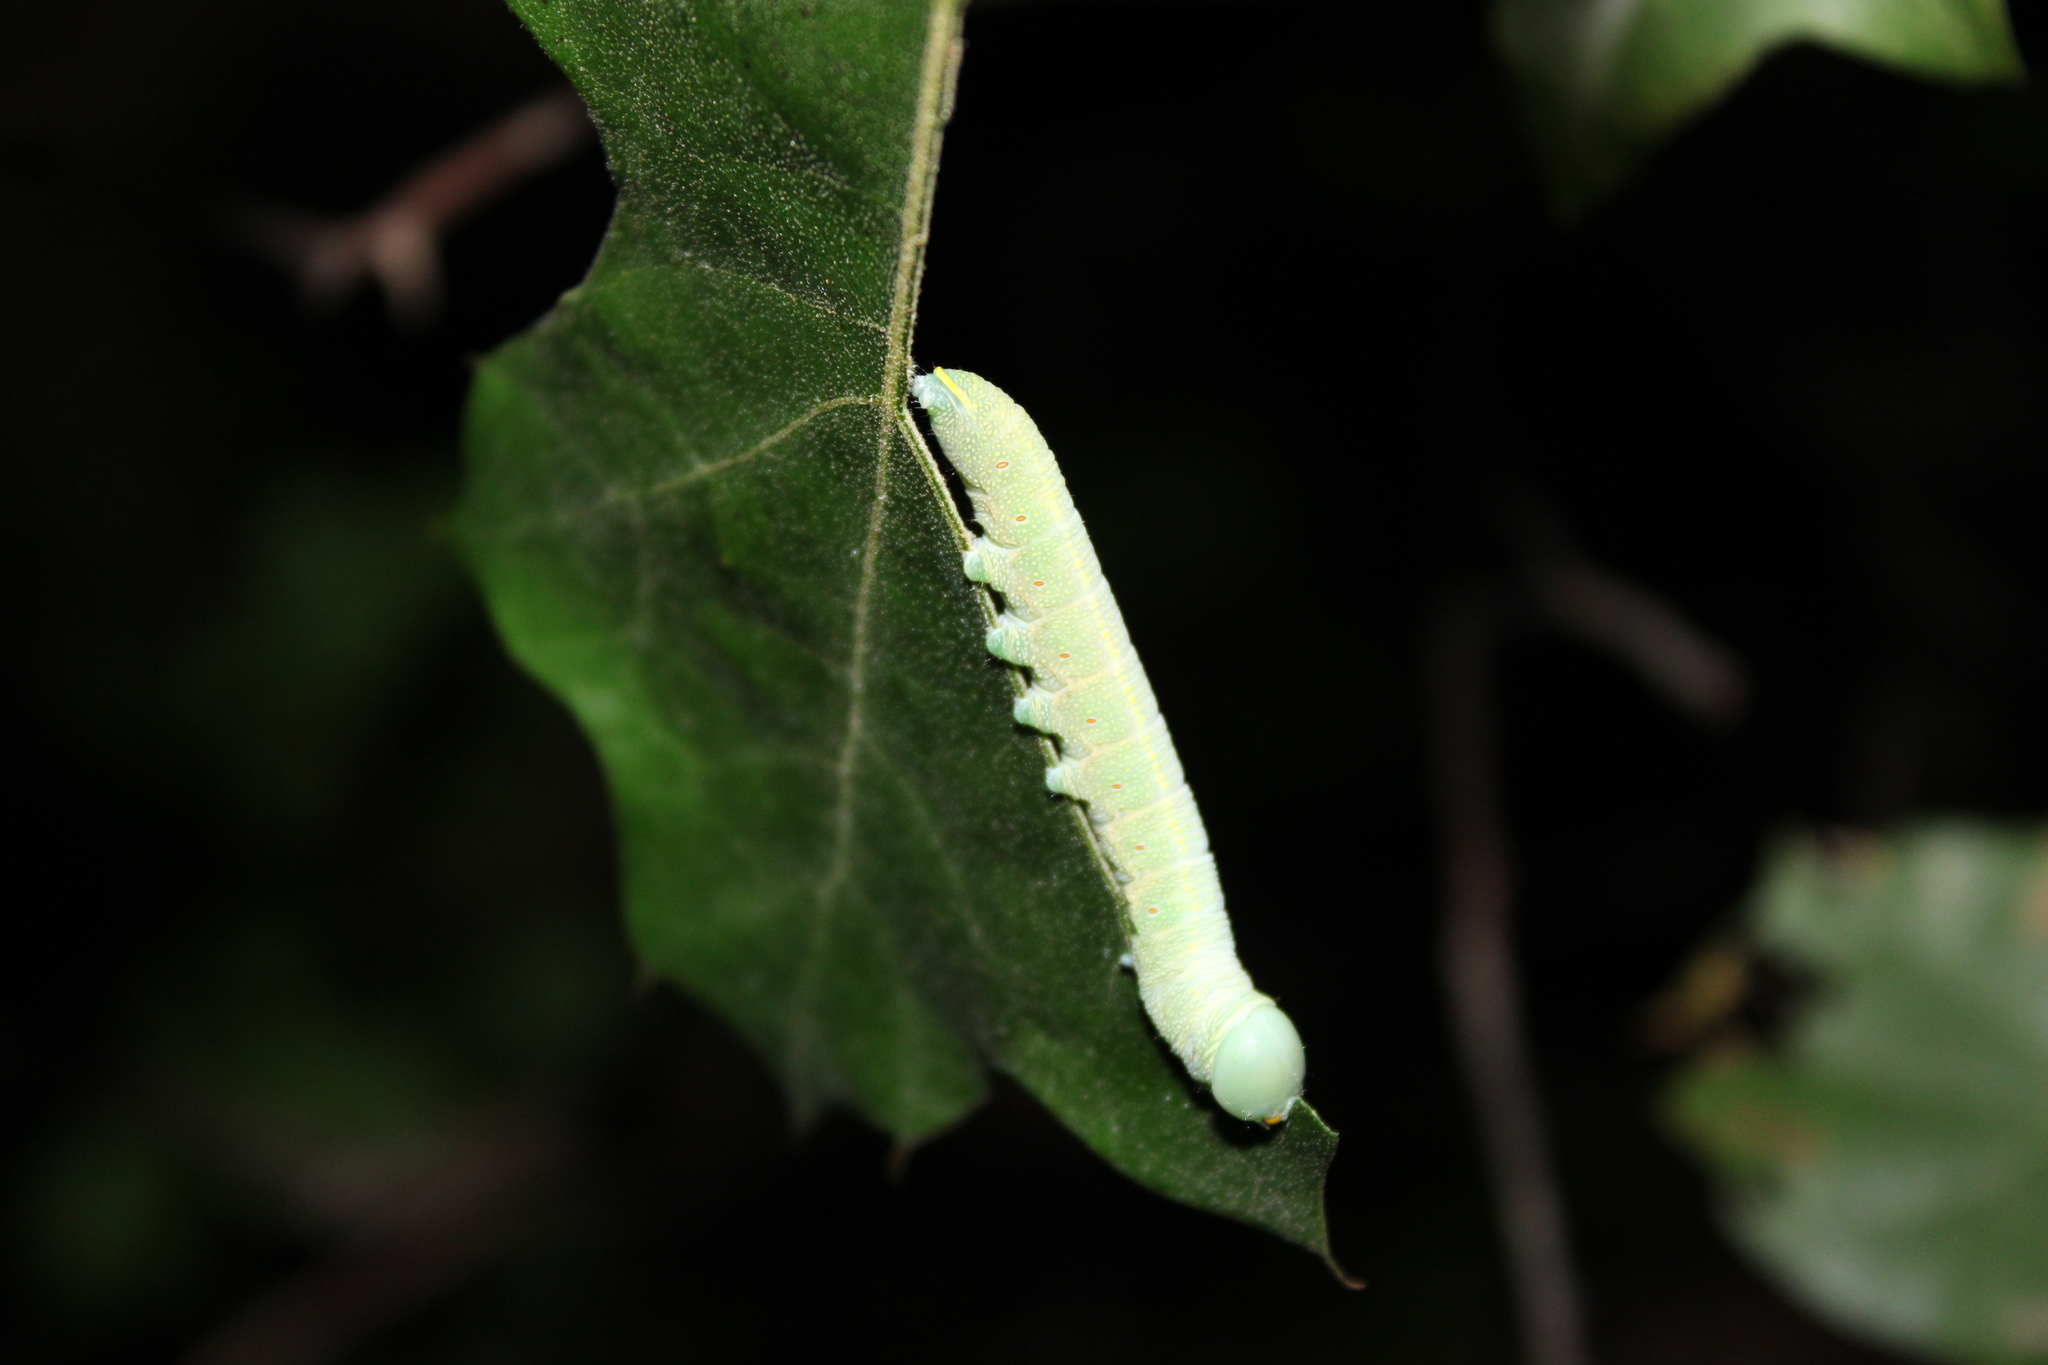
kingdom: Animalia
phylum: Arthropoda
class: Insecta
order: Lepidoptera
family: Notodontidae
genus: Nadata
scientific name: Nadata gibbosa
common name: White-dotted prominent
